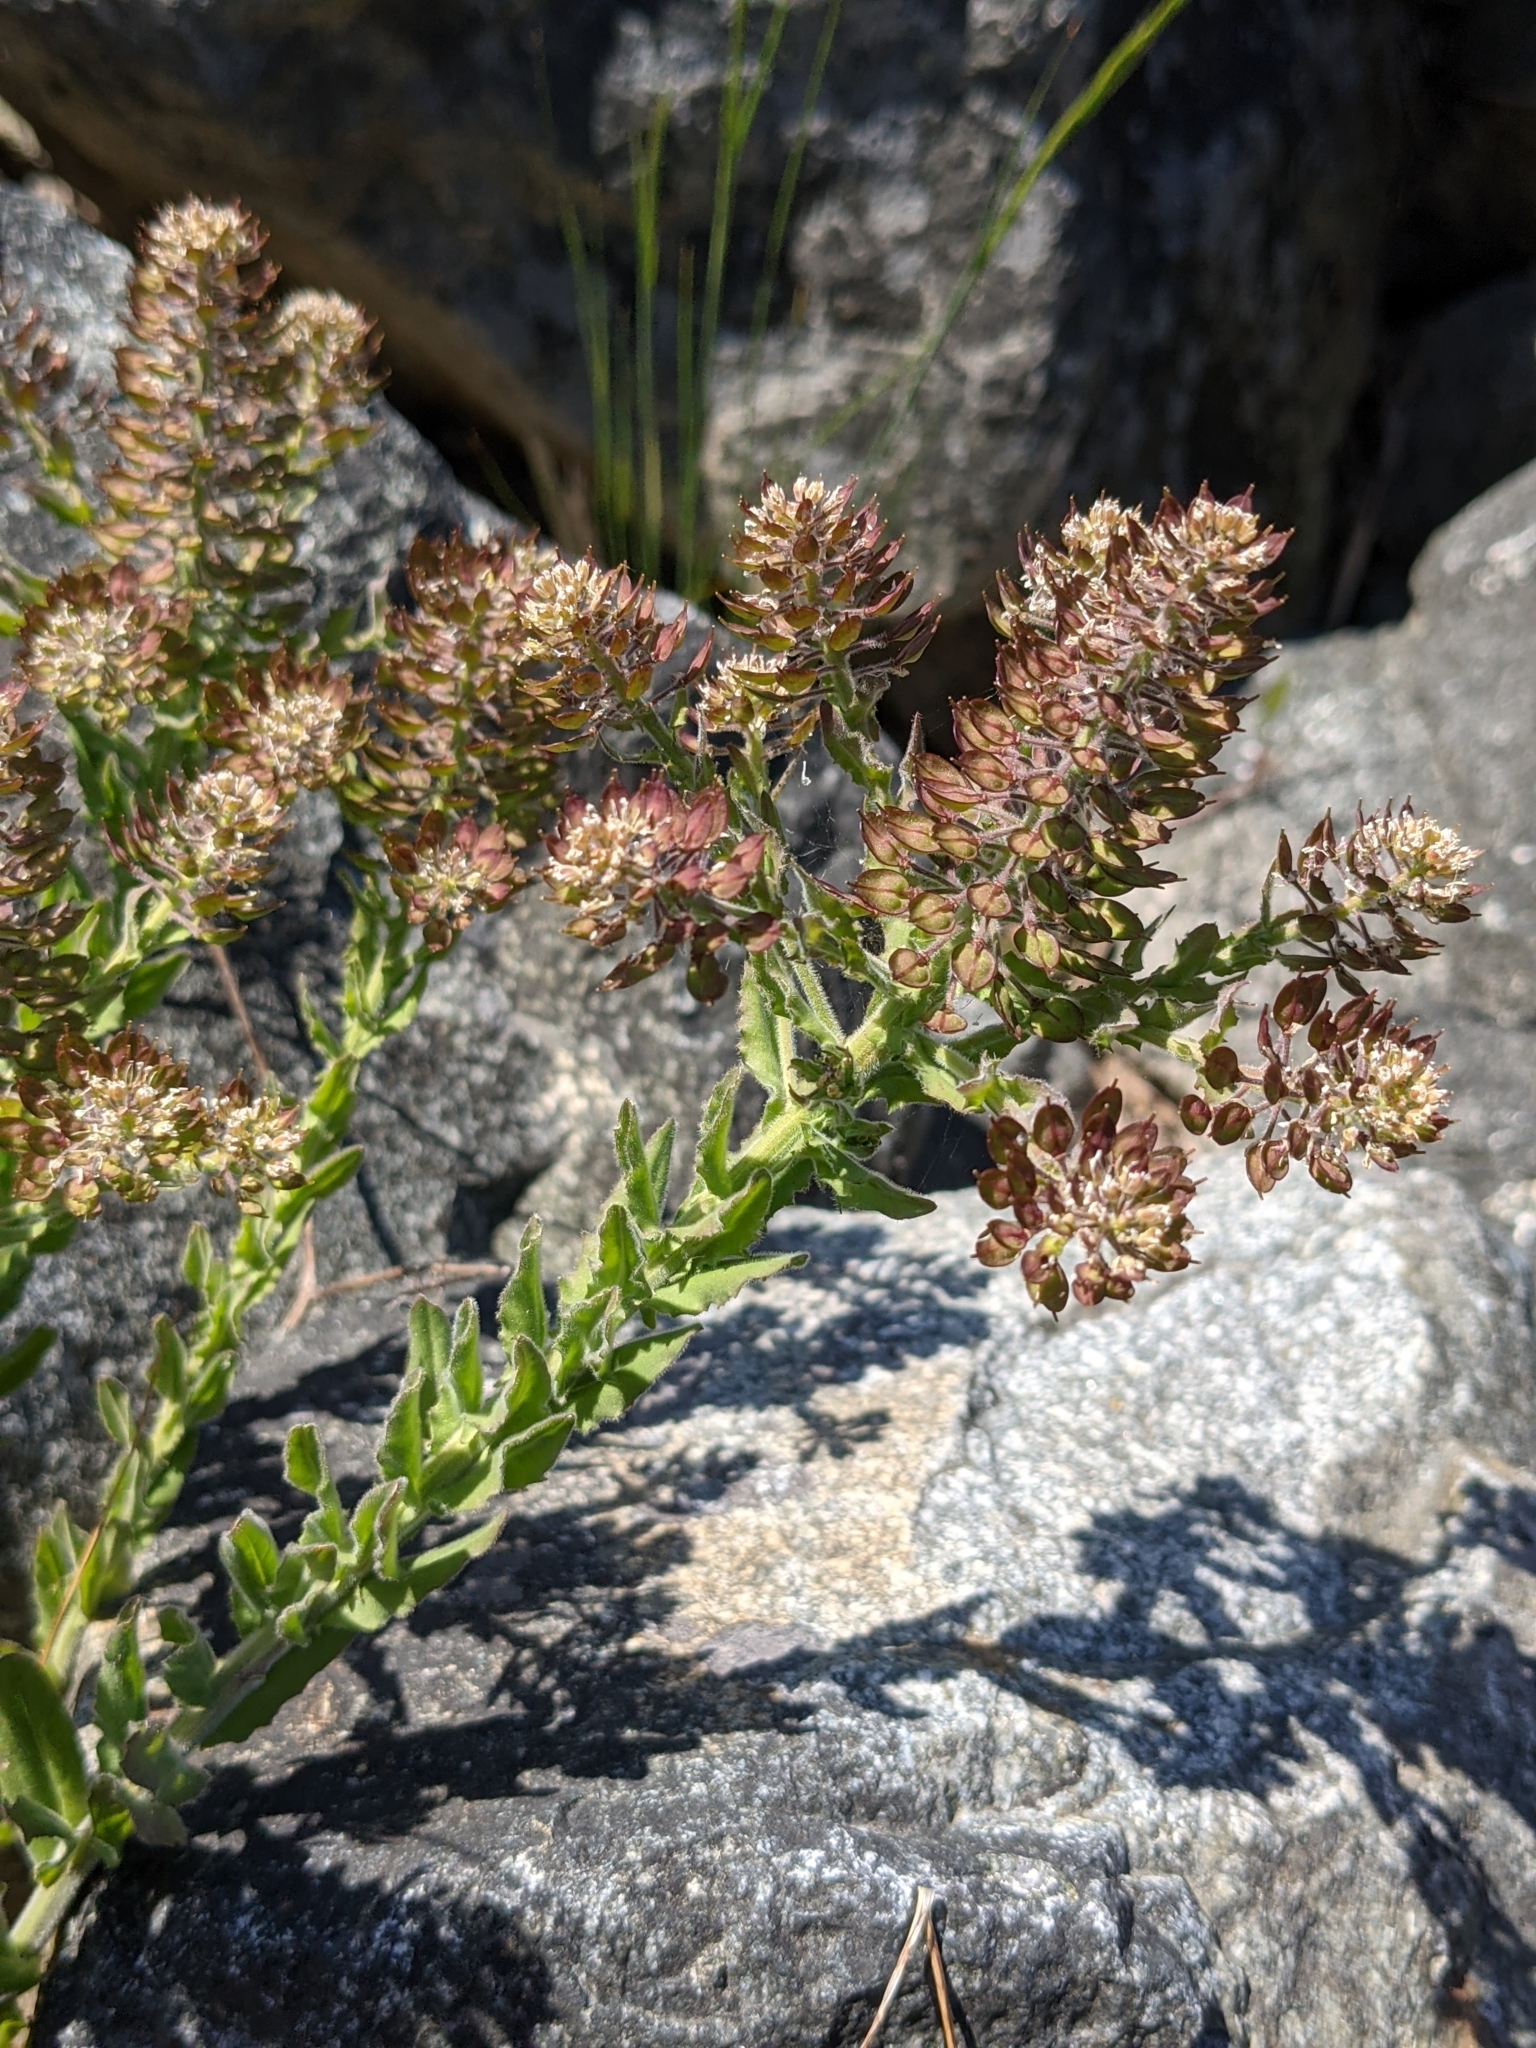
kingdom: Plantae
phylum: Tracheophyta
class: Magnoliopsida
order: Brassicales
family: Brassicaceae
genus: Lepidium
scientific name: Lepidium heterophyllum
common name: Smith's pepperwort
